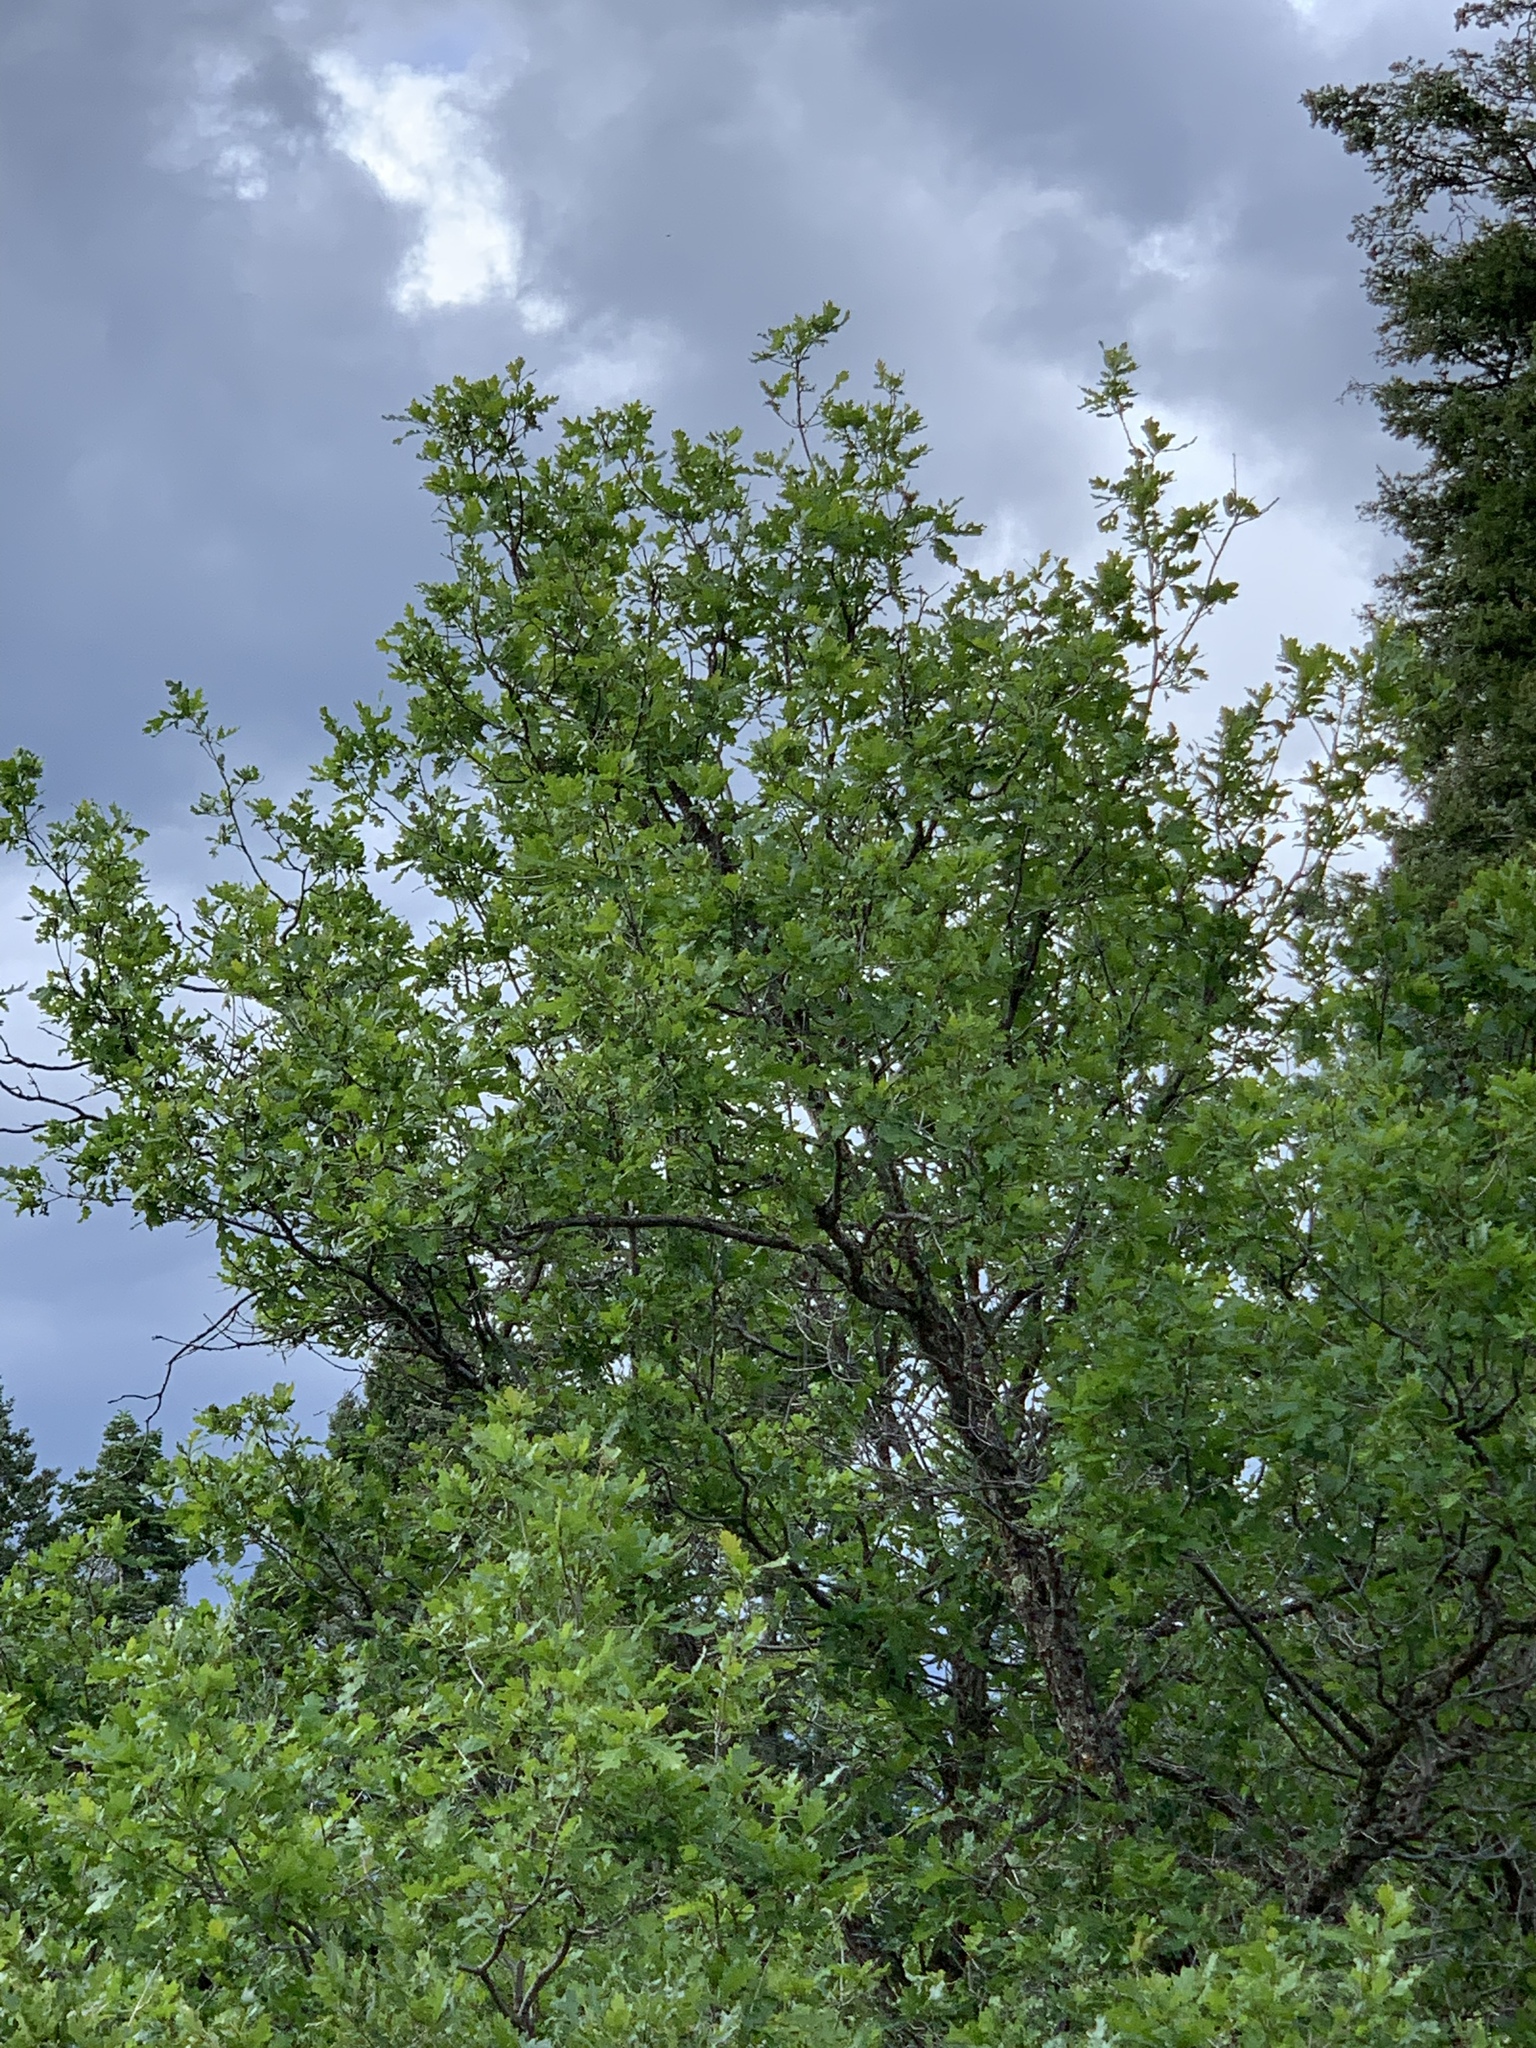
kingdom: Plantae
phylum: Tracheophyta
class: Magnoliopsida
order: Fagales
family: Fagaceae
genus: Quercus
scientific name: Quercus gambelii
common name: Gambel oak
